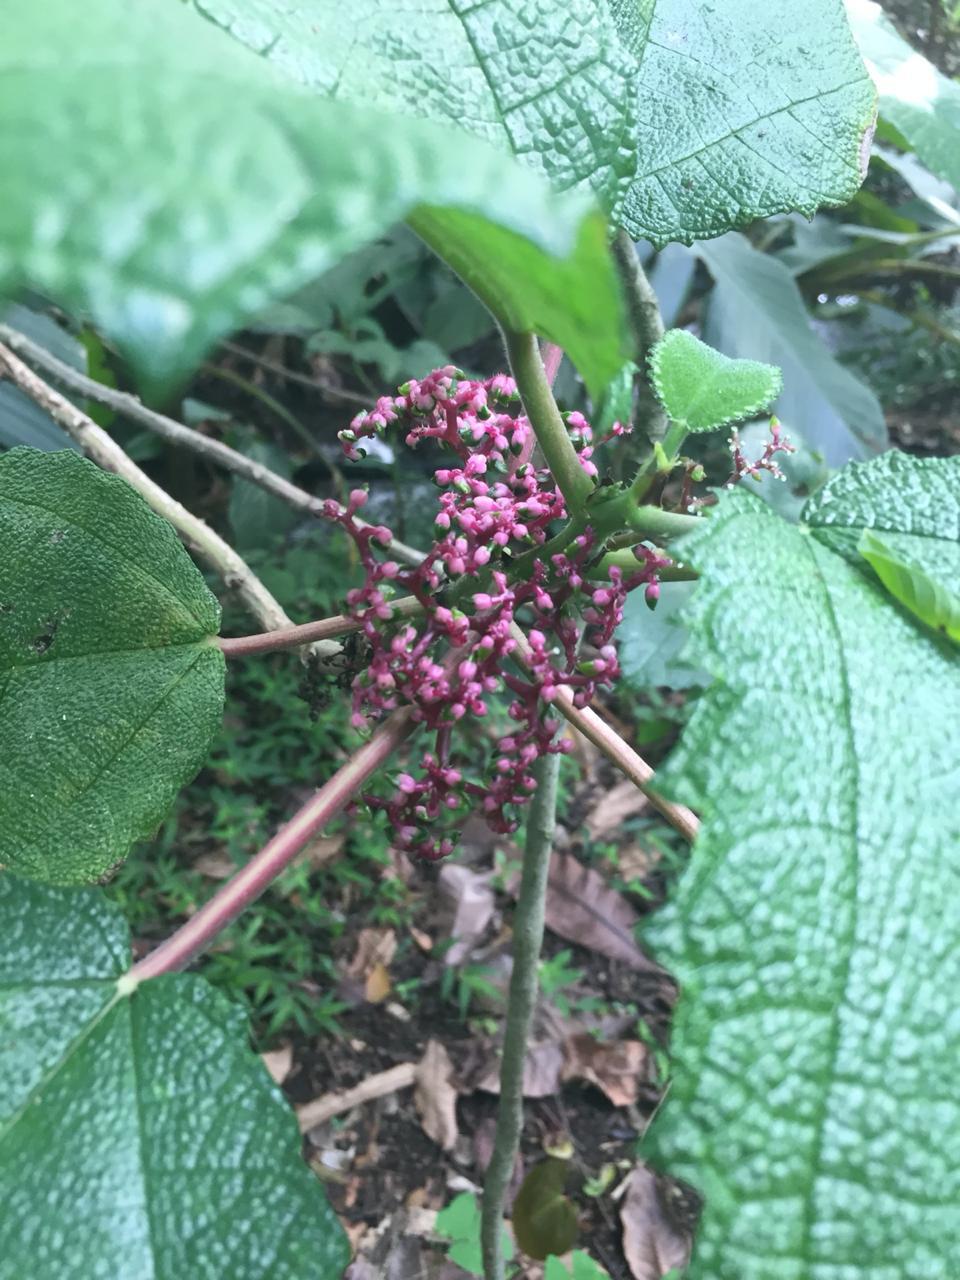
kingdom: Plantae
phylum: Tracheophyta
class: Magnoliopsida
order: Rosales
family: Urticaceae
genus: Urera
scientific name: Urera baccifera
